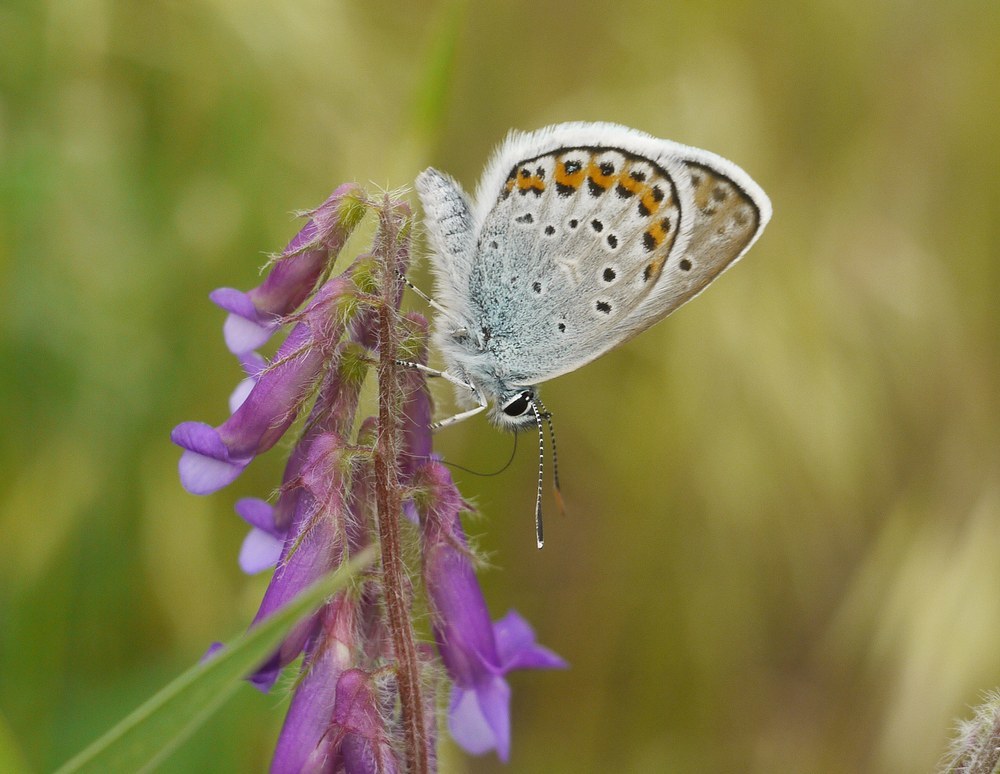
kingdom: Animalia
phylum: Arthropoda
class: Insecta
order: Lepidoptera
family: Lycaenidae
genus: Plebejus
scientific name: Plebejus argus
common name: Silver-studded blue
